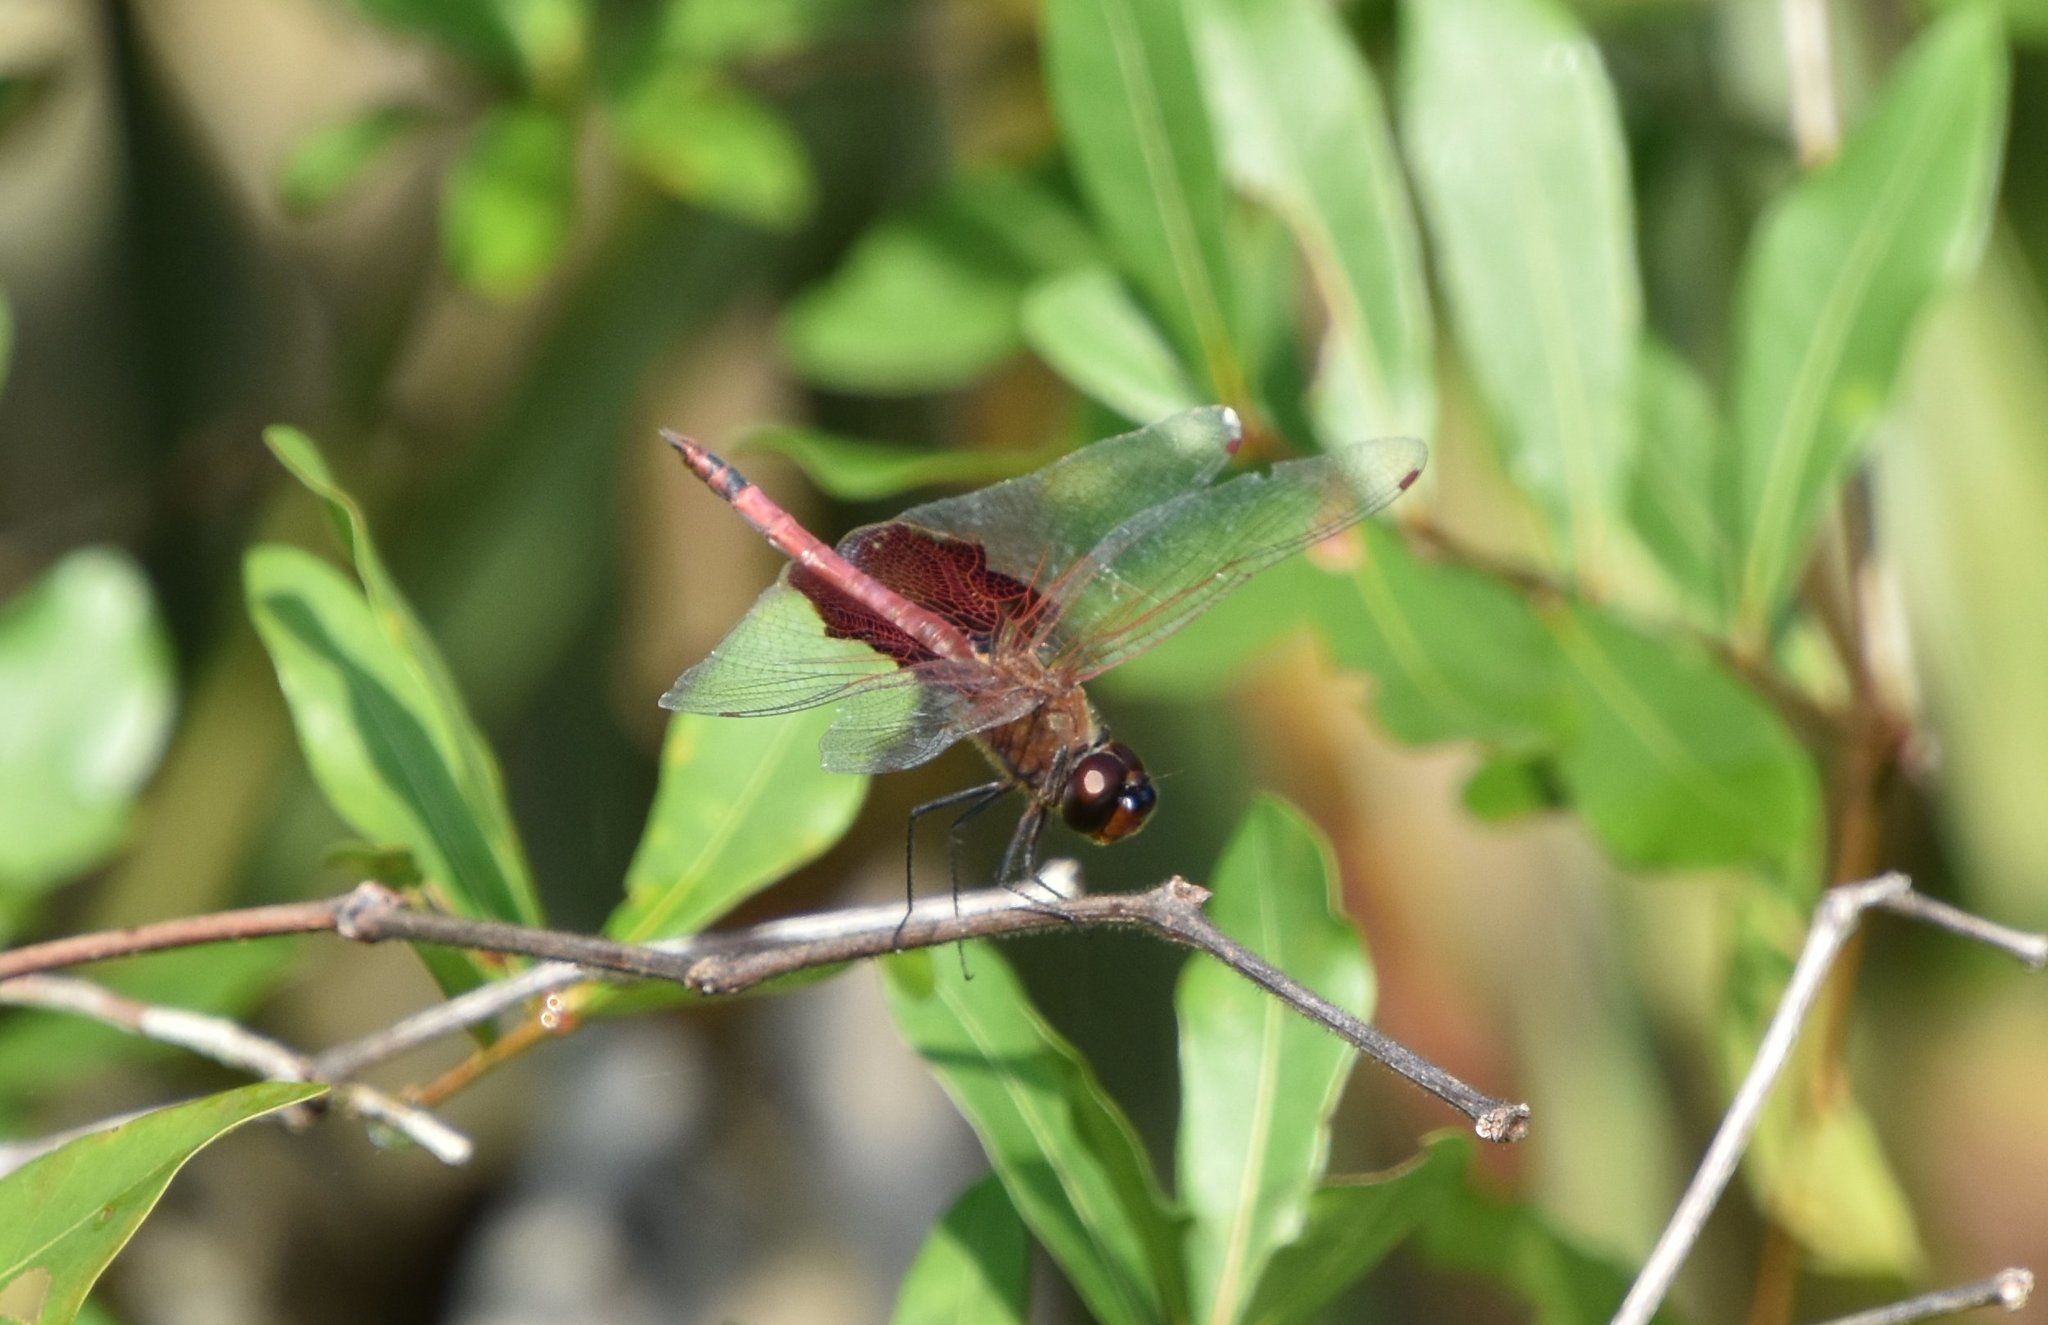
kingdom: Animalia
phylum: Arthropoda
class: Insecta
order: Odonata
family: Libellulidae
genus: Tramea
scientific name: Tramea carolina
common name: Carolina saddlebags
